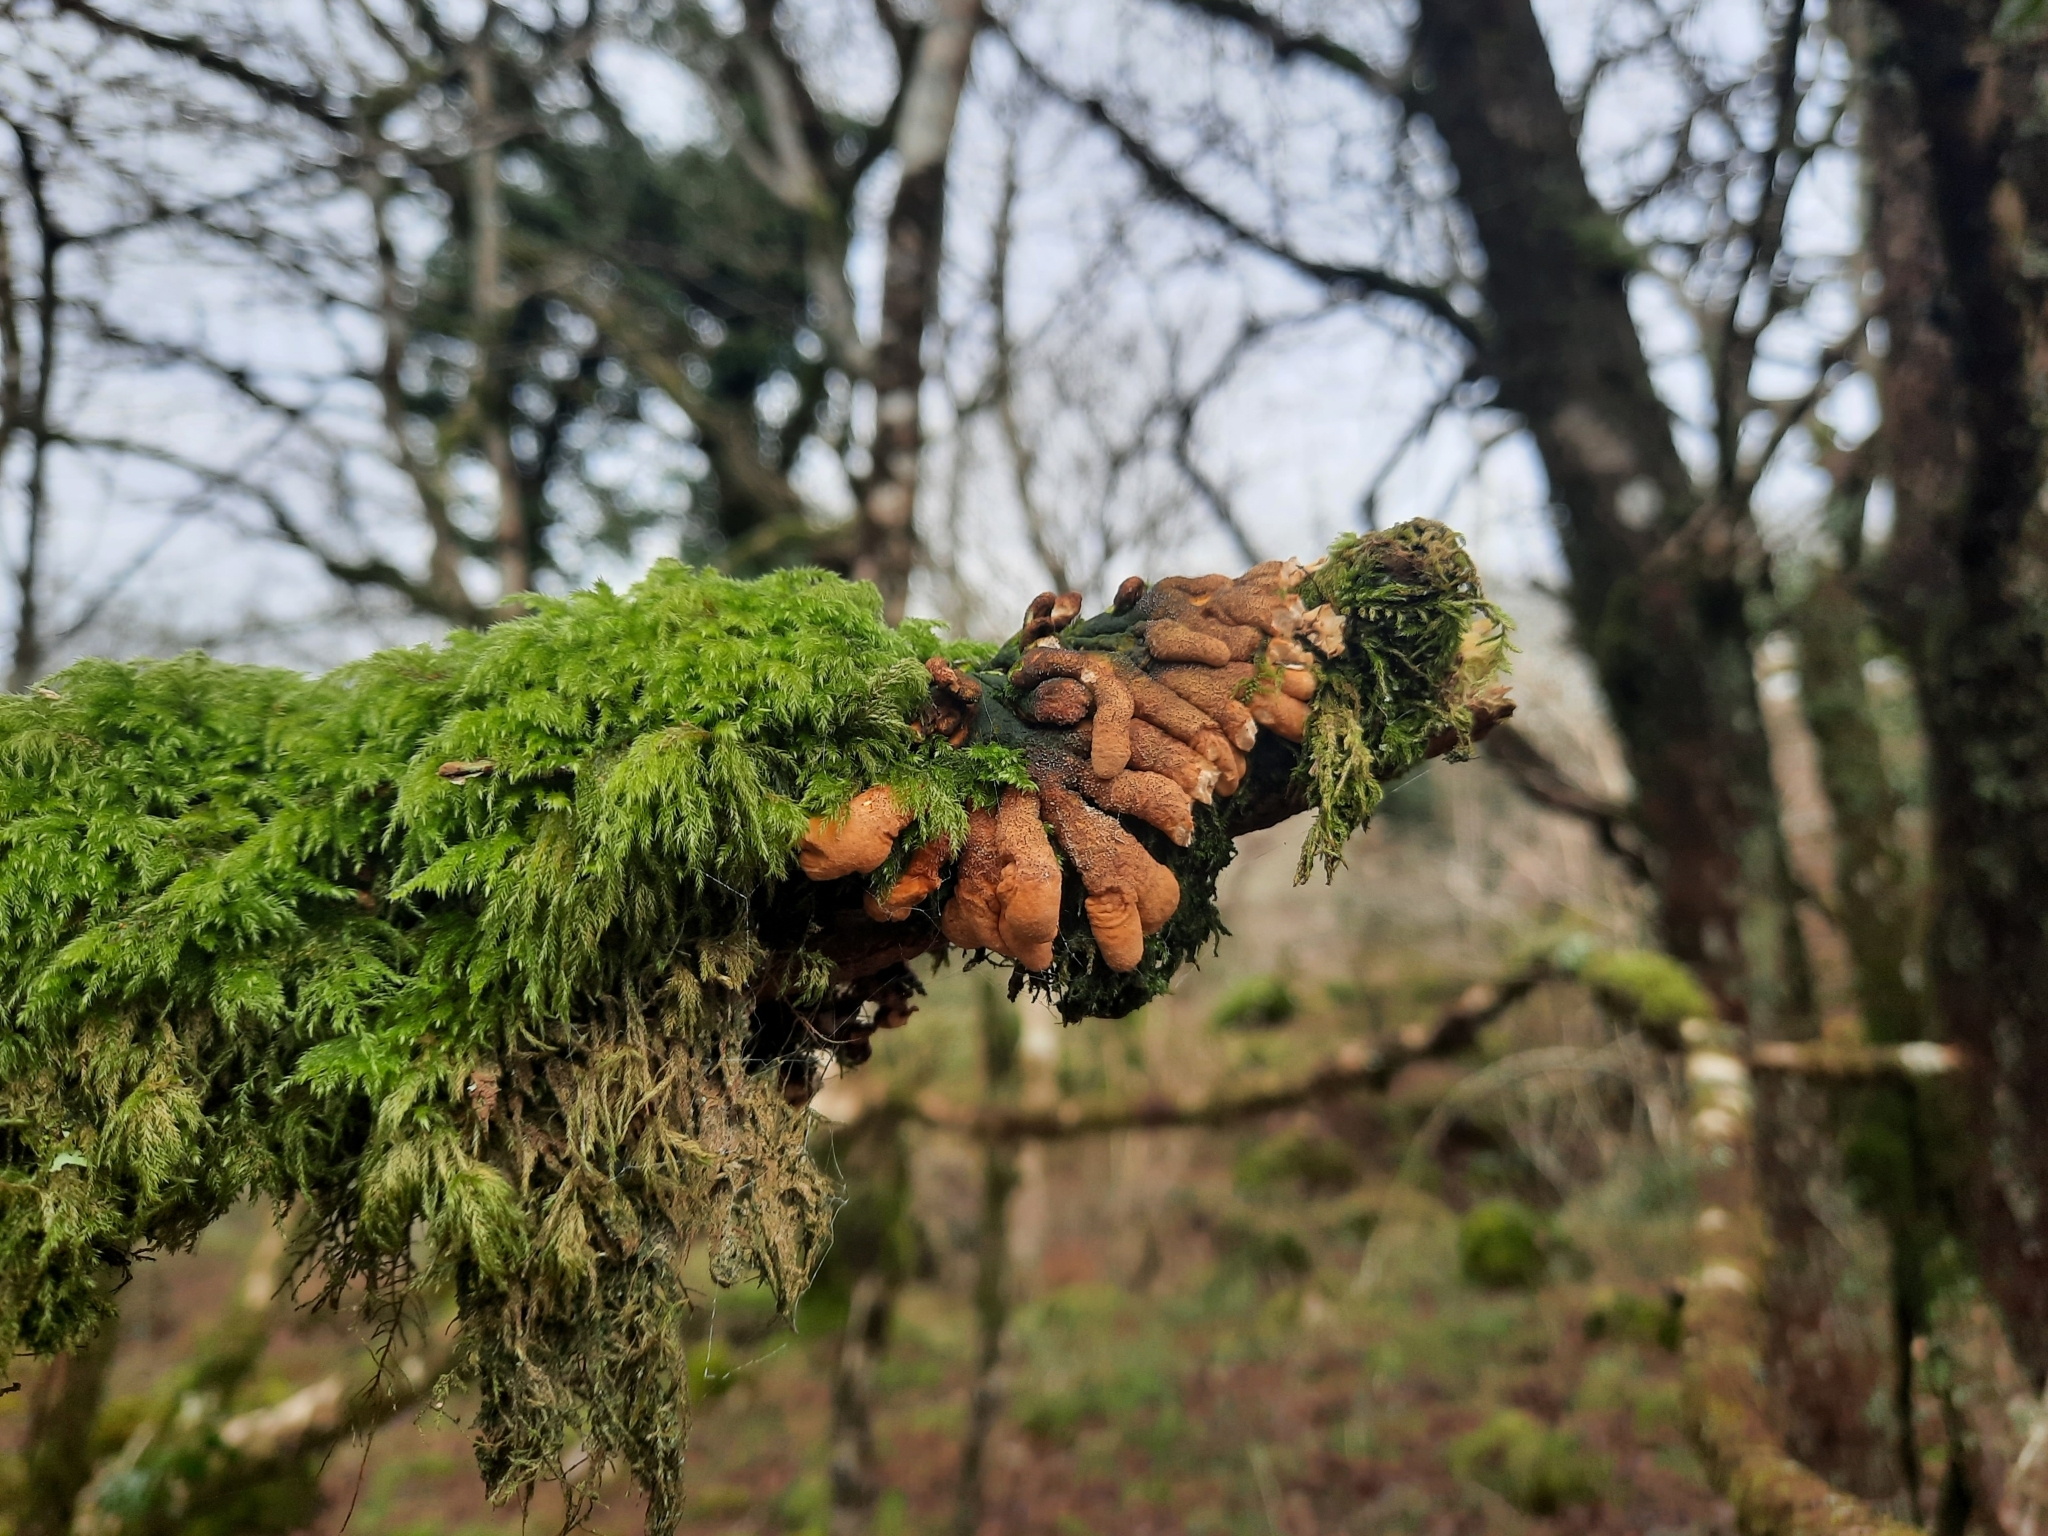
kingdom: Fungi
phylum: Ascomycota
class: Sordariomycetes
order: Hypocreales
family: Hypocreaceae
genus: Hypocreopsis
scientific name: Hypocreopsis rhododendri
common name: Hazel gloves
